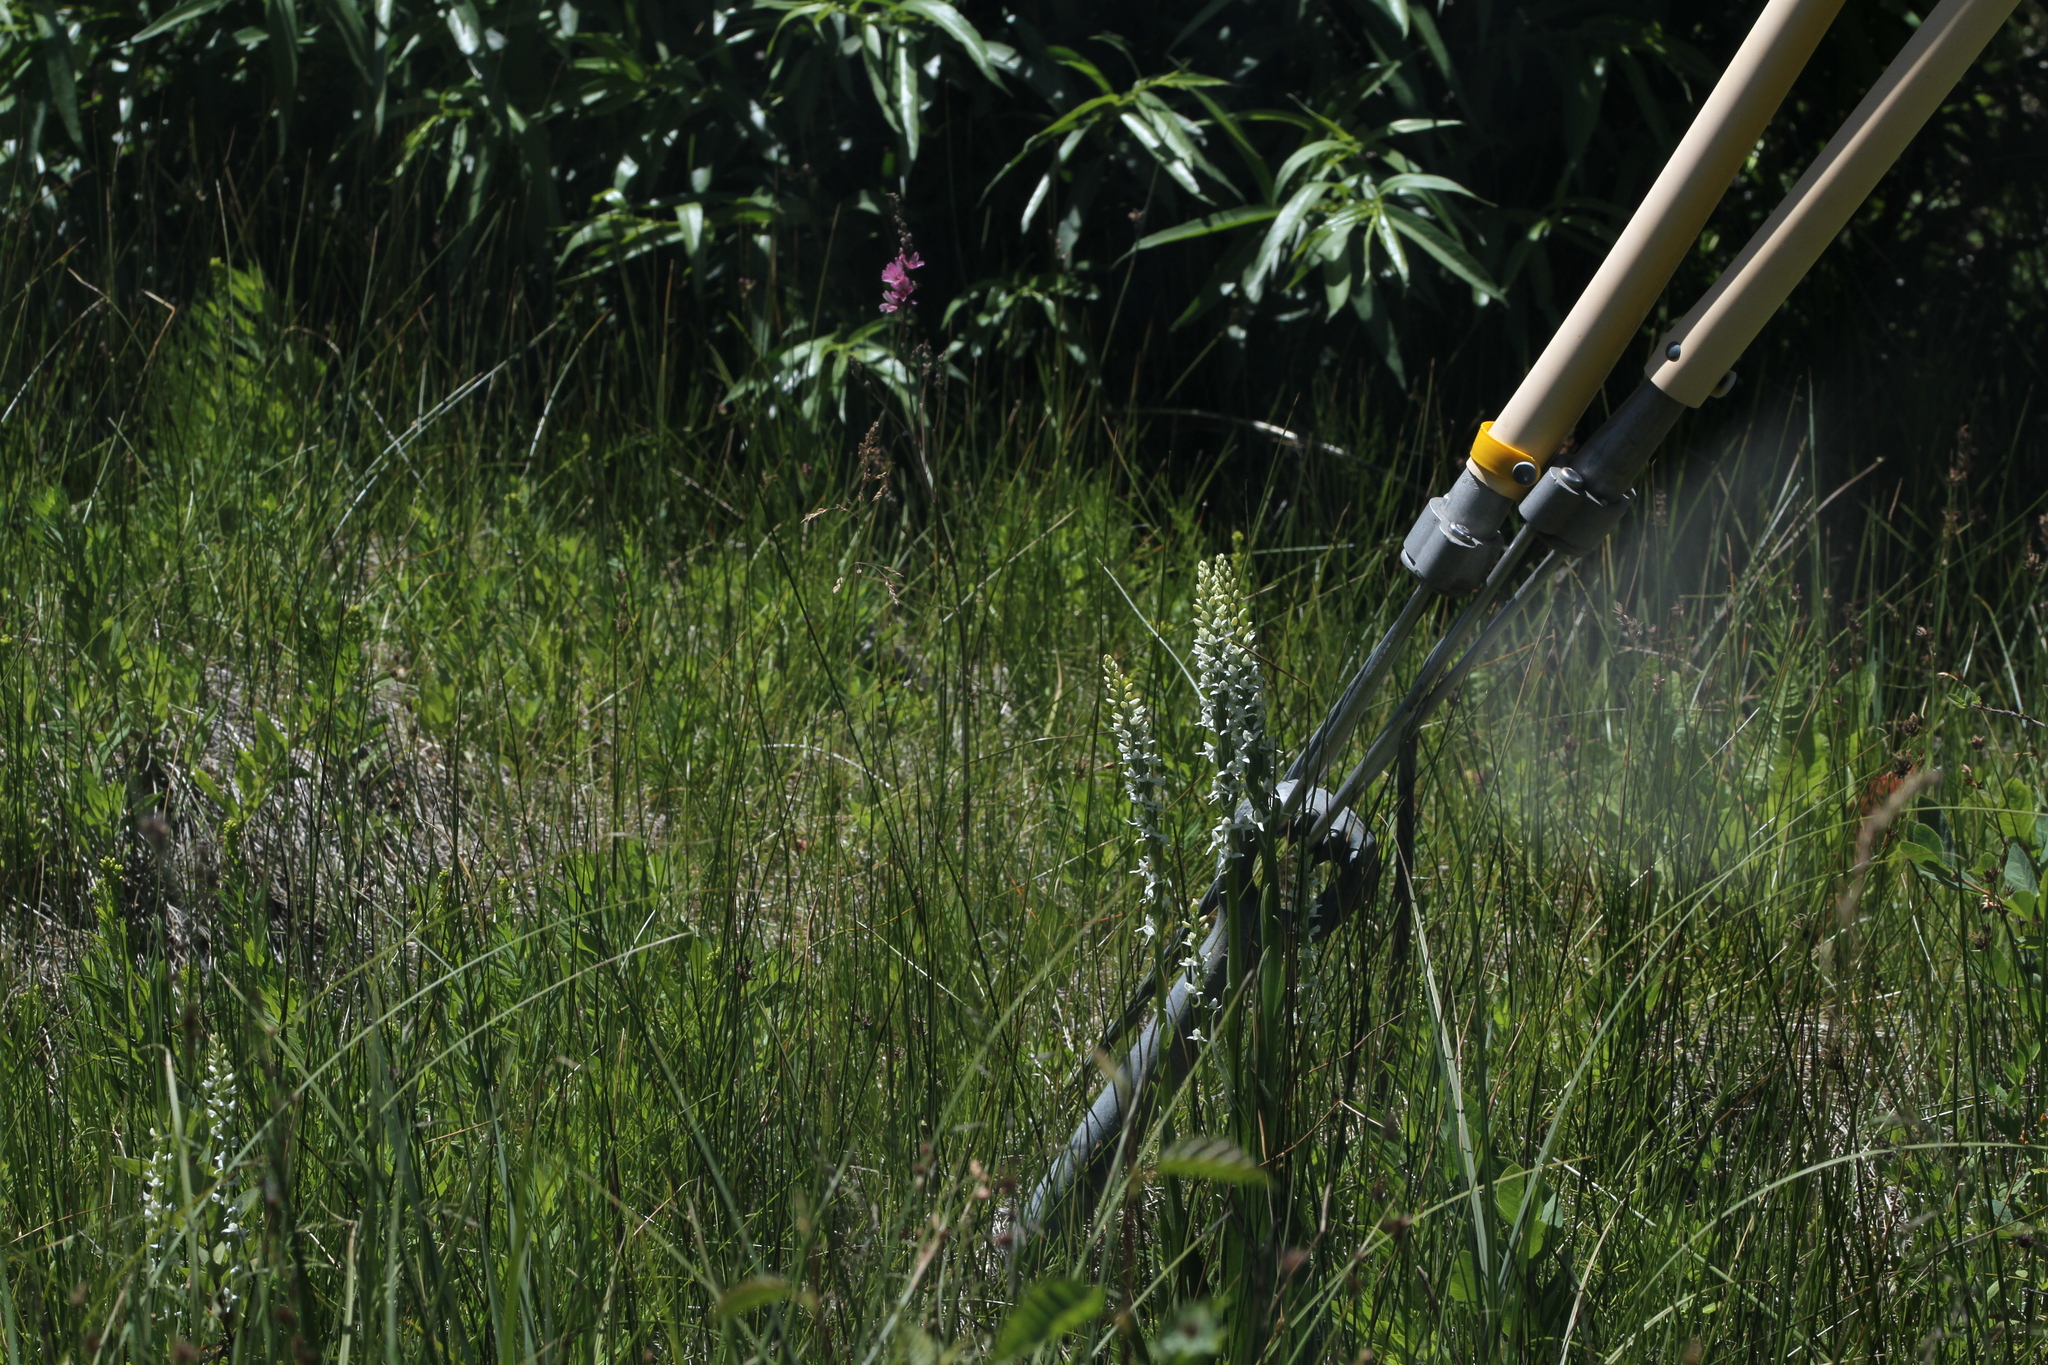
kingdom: Plantae
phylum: Tracheophyta
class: Liliopsida
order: Asparagales
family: Orchidaceae
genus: Platanthera
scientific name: Platanthera dilatata
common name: Bog candles
